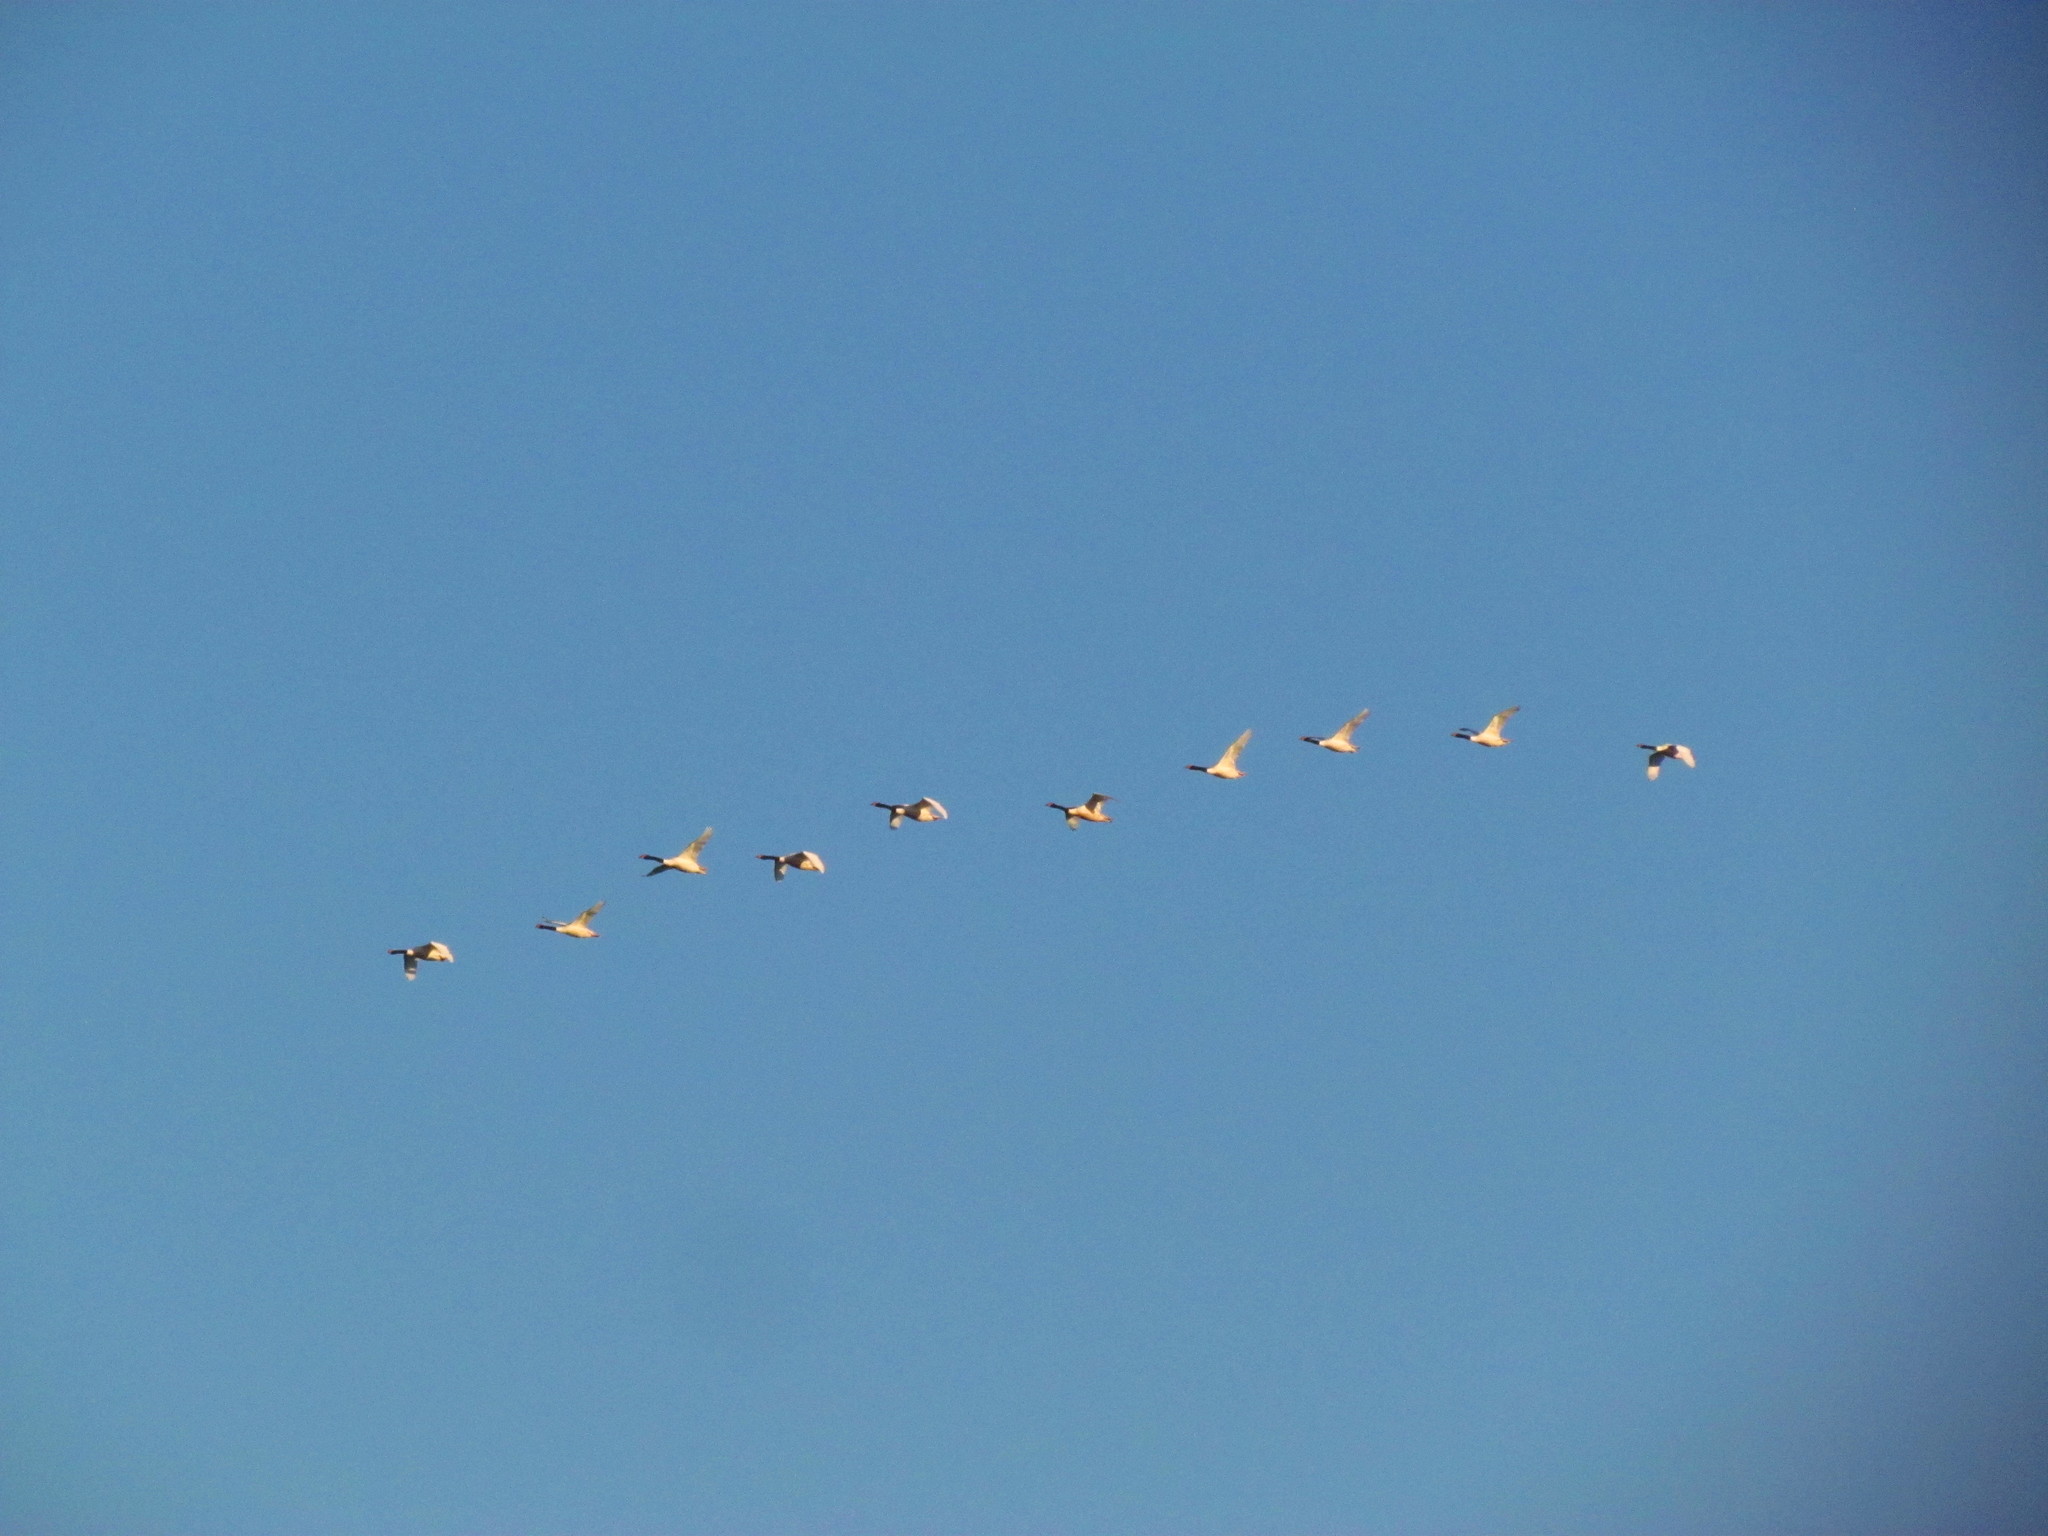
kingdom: Animalia
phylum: Chordata
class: Aves
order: Anseriformes
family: Anatidae
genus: Cygnus
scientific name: Cygnus melancoryphus
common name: Black-necked swan
